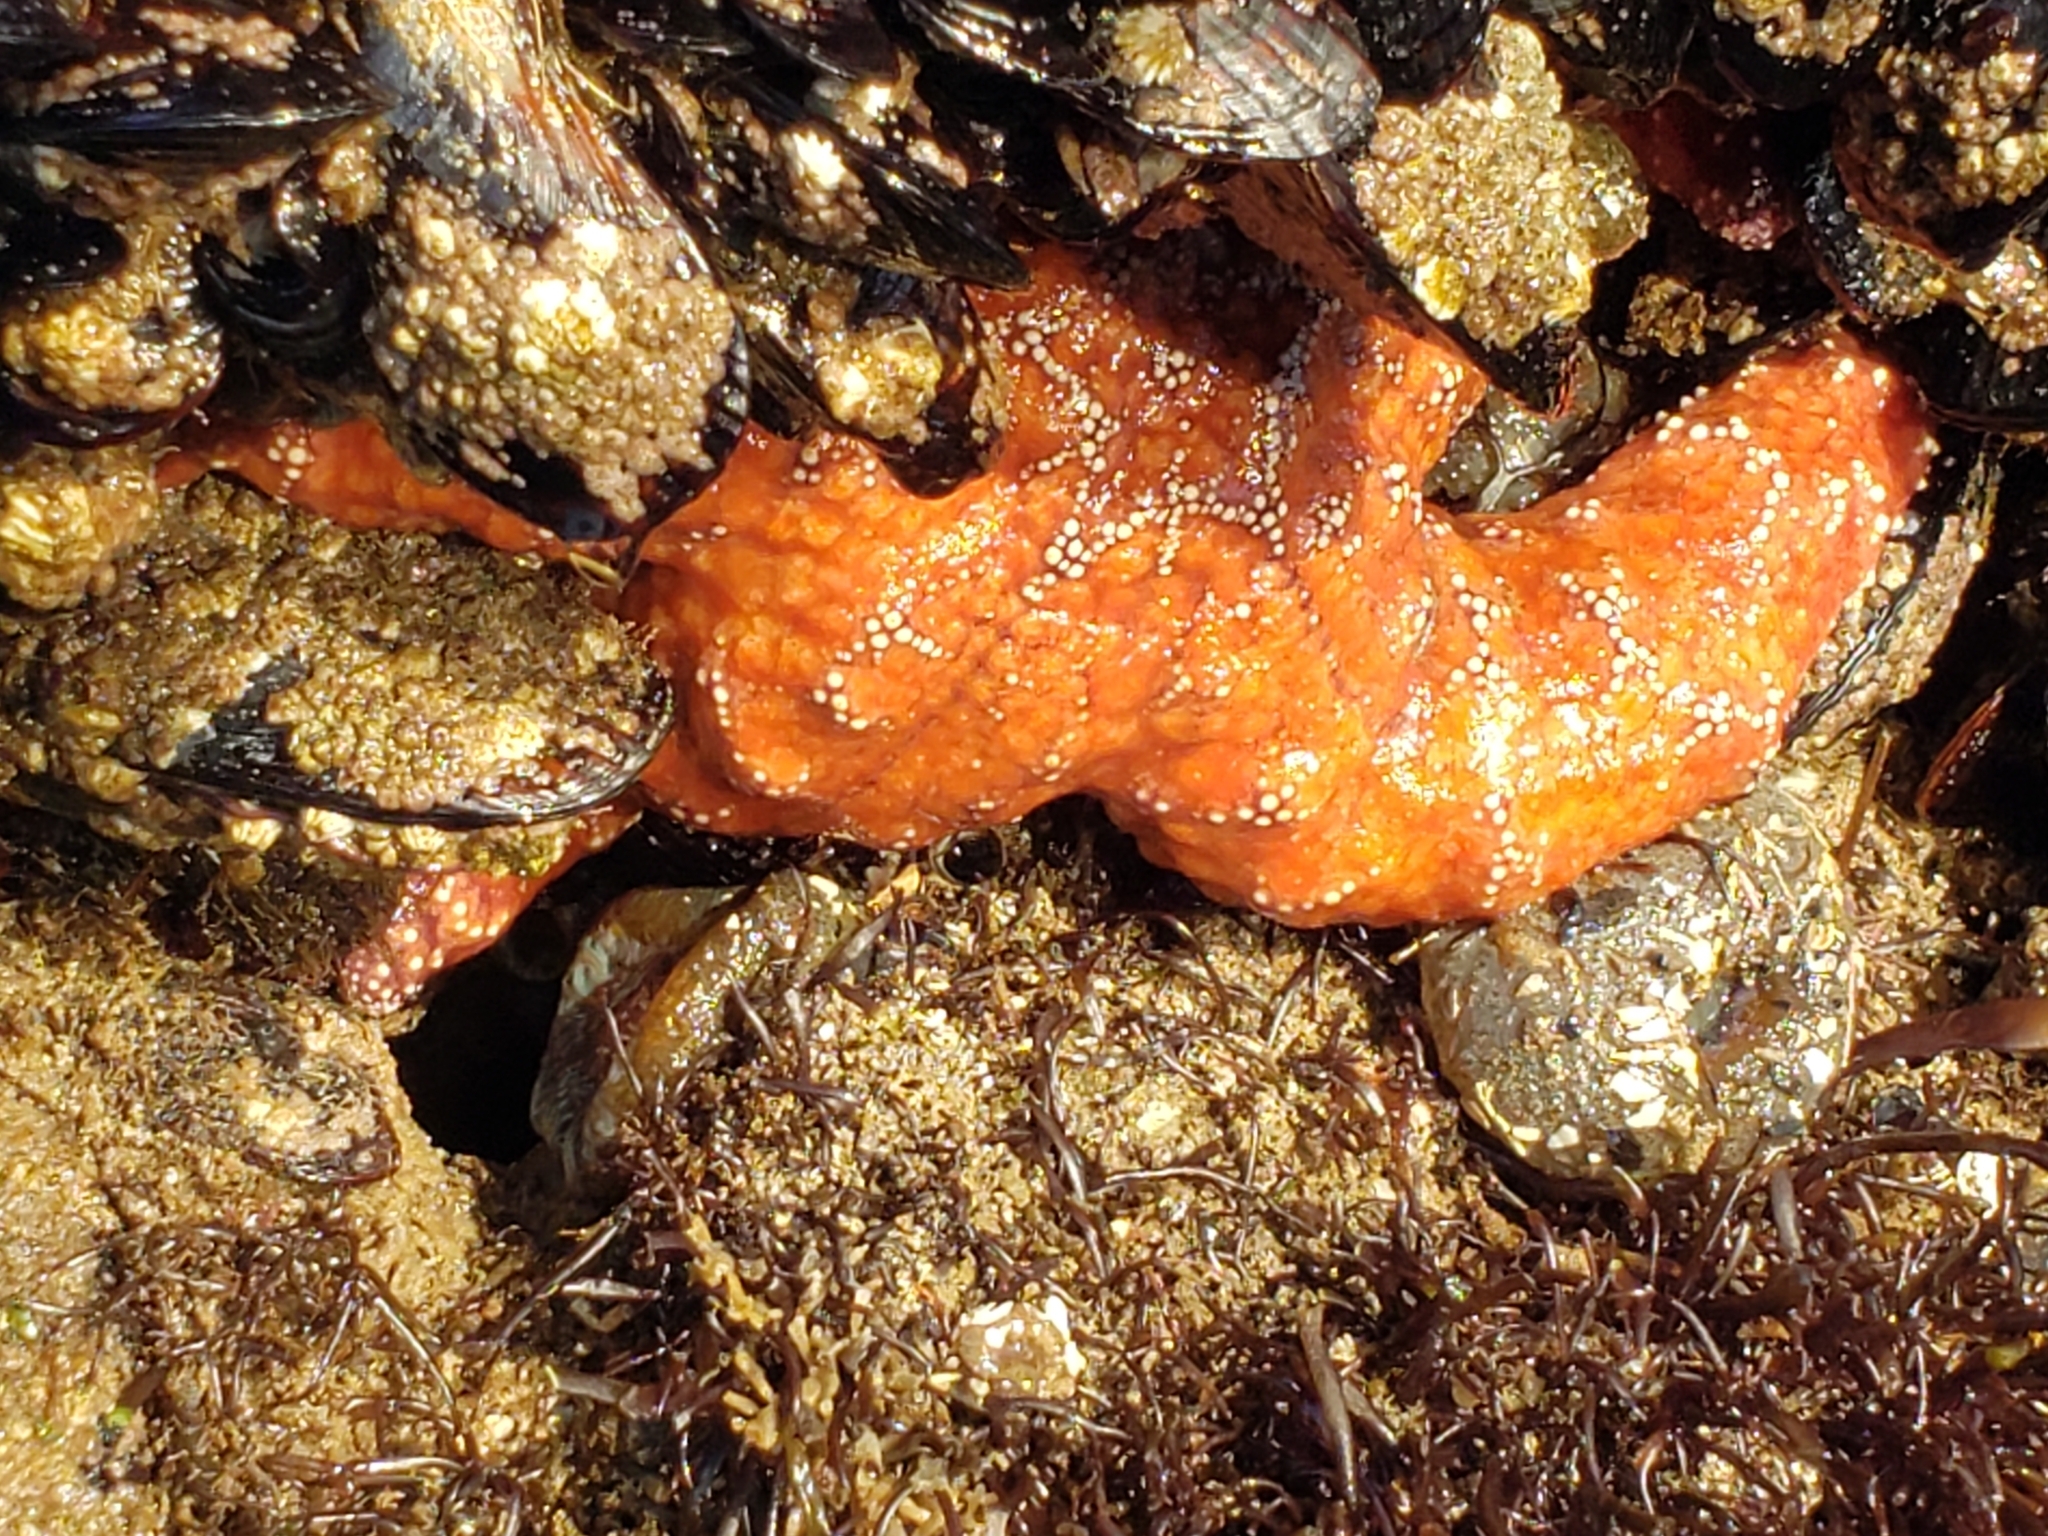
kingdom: Animalia
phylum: Echinodermata
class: Asteroidea
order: Forcipulatida
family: Asteriidae
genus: Pisaster
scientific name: Pisaster ochraceus
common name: Ochre stars
